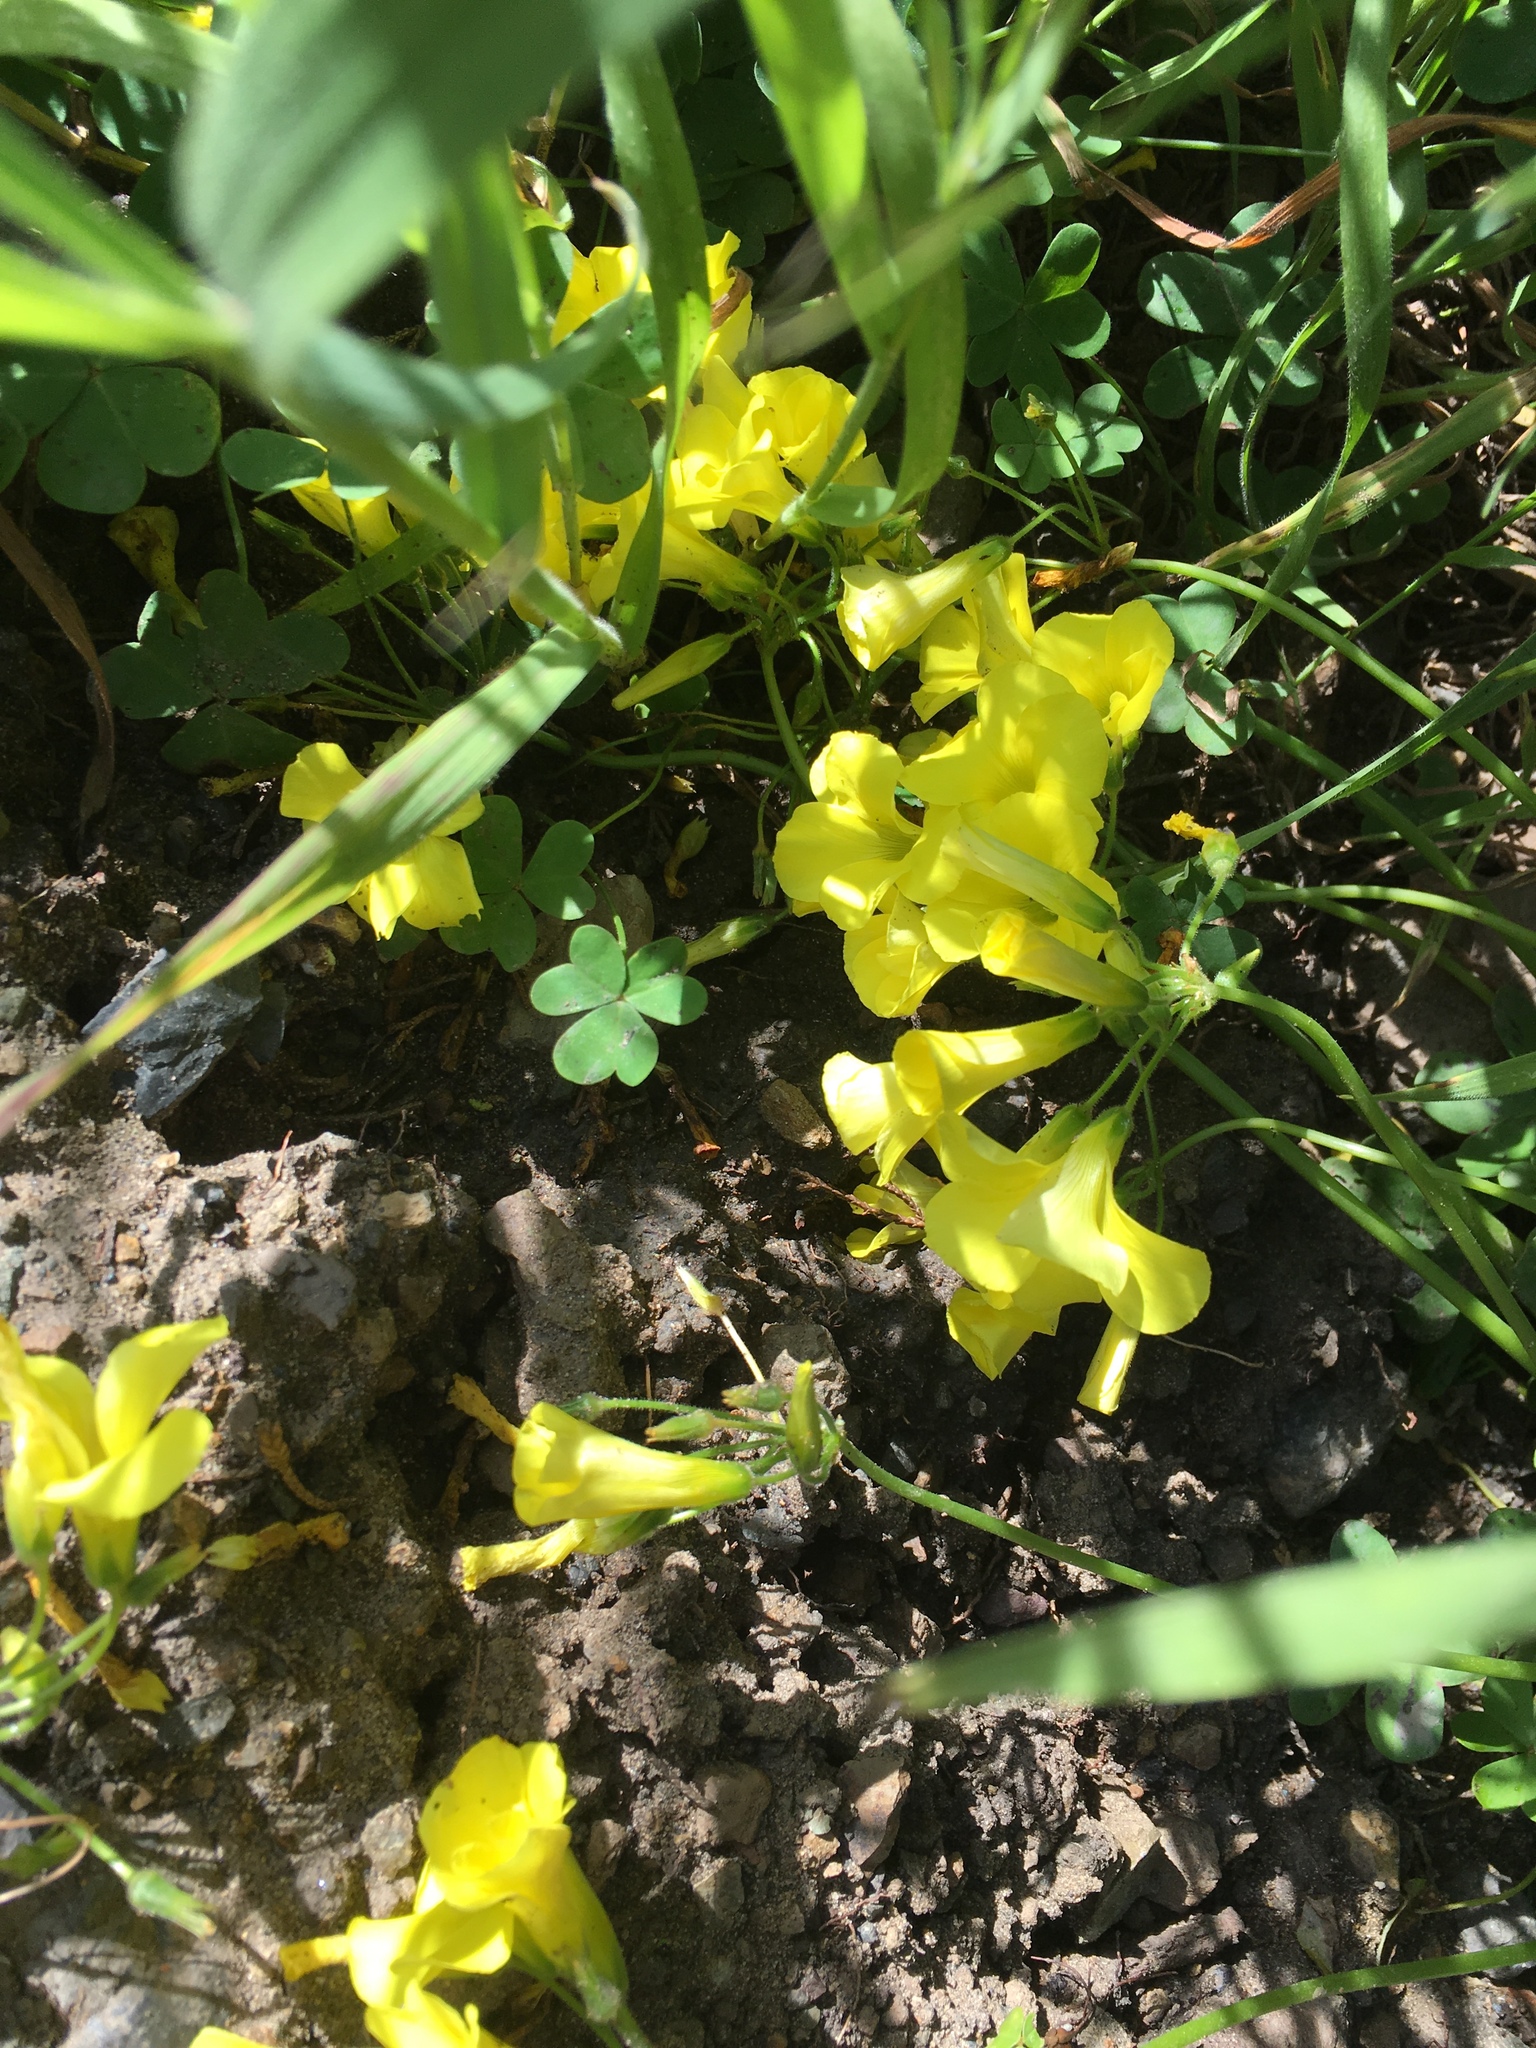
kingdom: Plantae
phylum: Tracheophyta
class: Magnoliopsida
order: Oxalidales
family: Oxalidaceae
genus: Oxalis
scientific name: Oxalis pes-caprae
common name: Bermuda-buttercup
